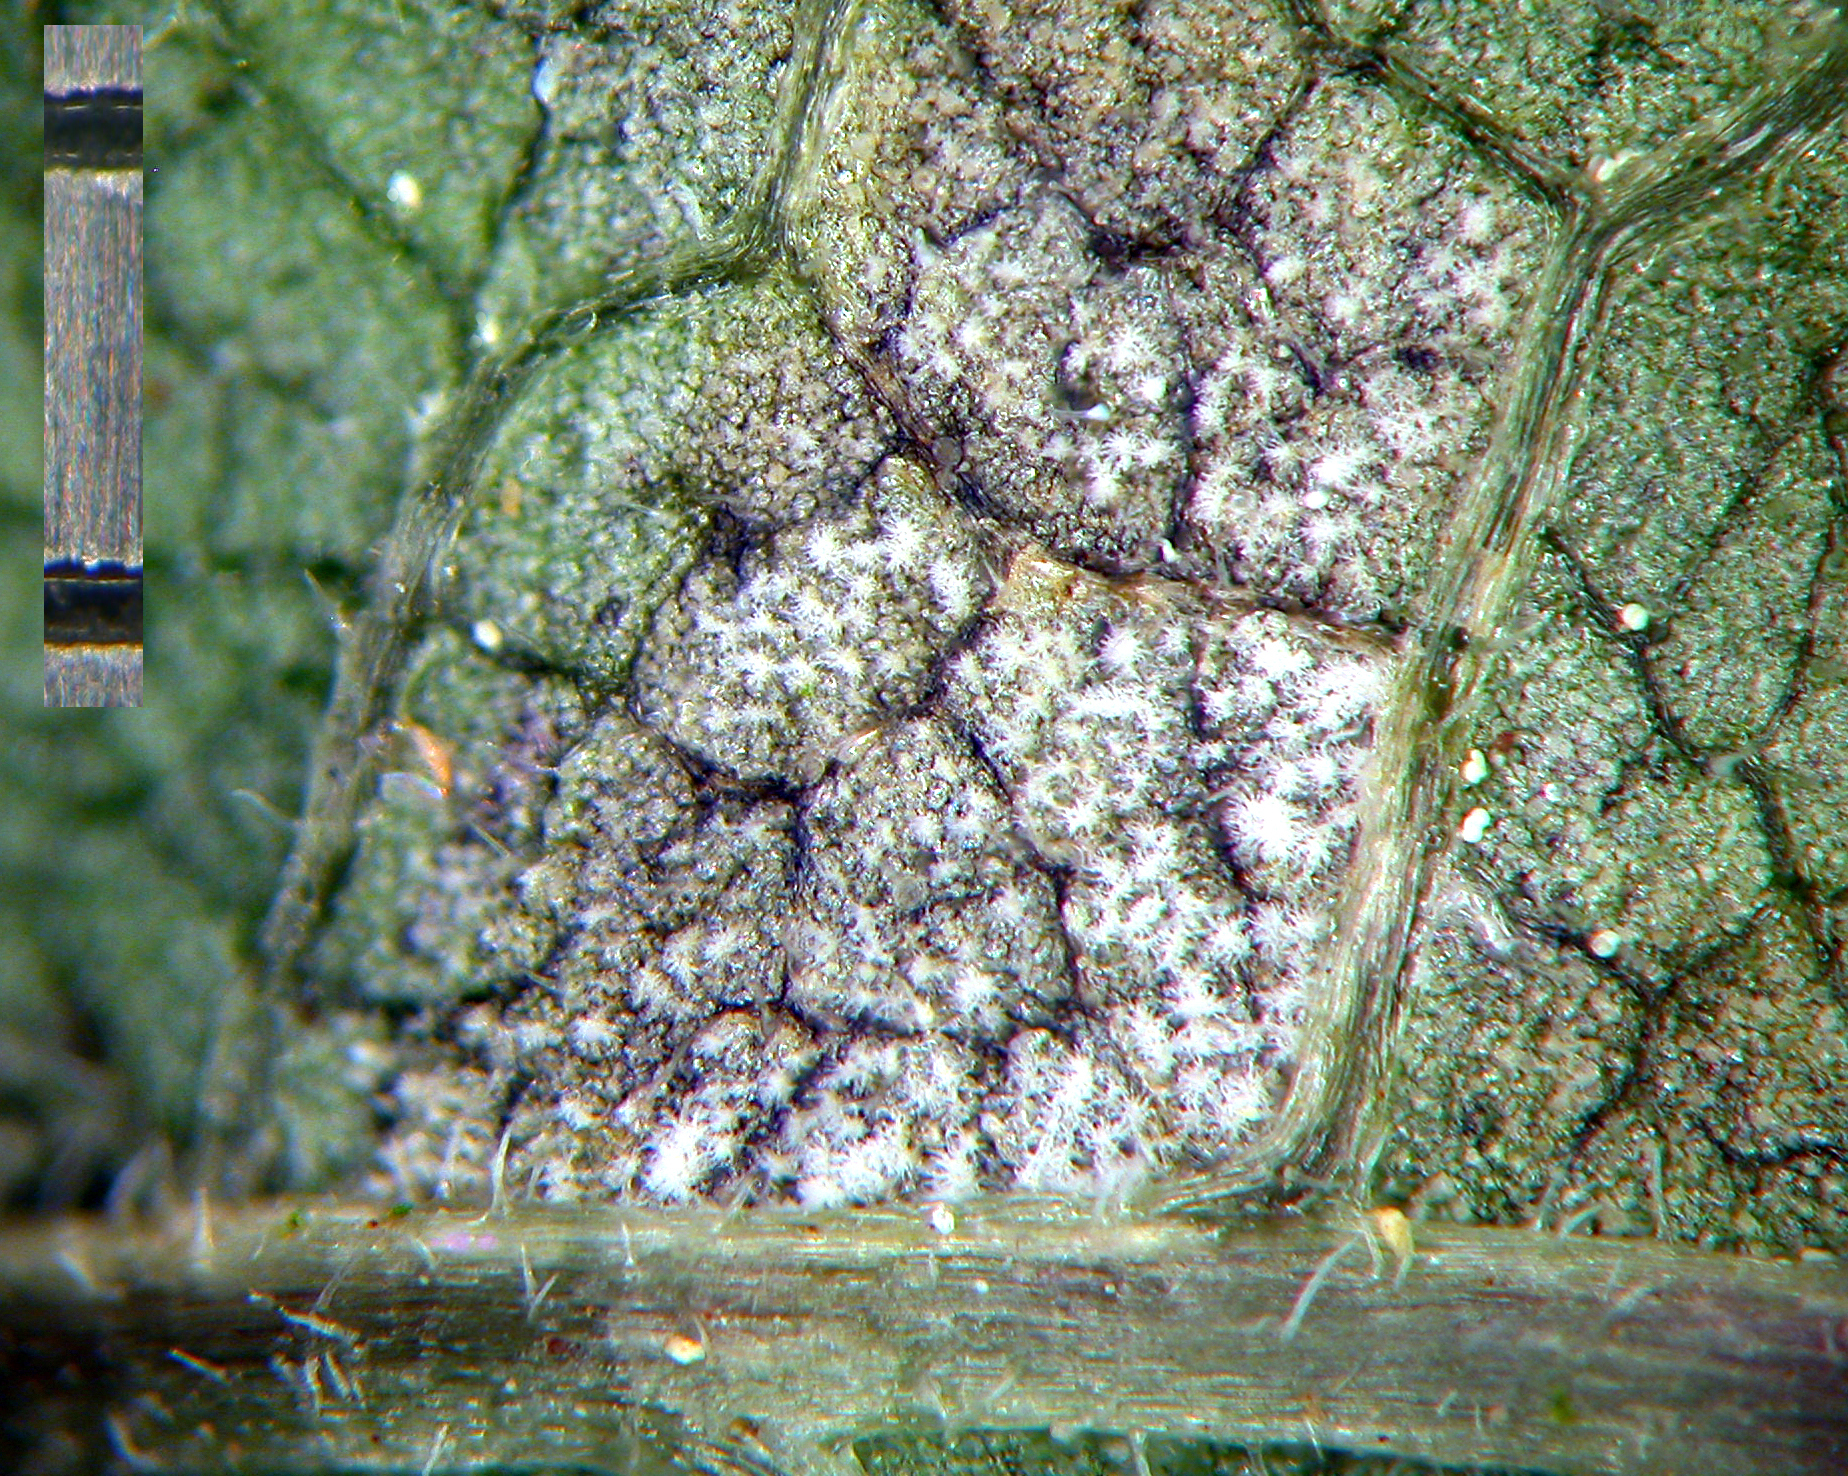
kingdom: Fungi
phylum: Ascomycota
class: Dothideomycetes
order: Mycosphaerellales
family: Mycosphaerellaceae
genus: Ramularia
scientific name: Ramularia urticae
